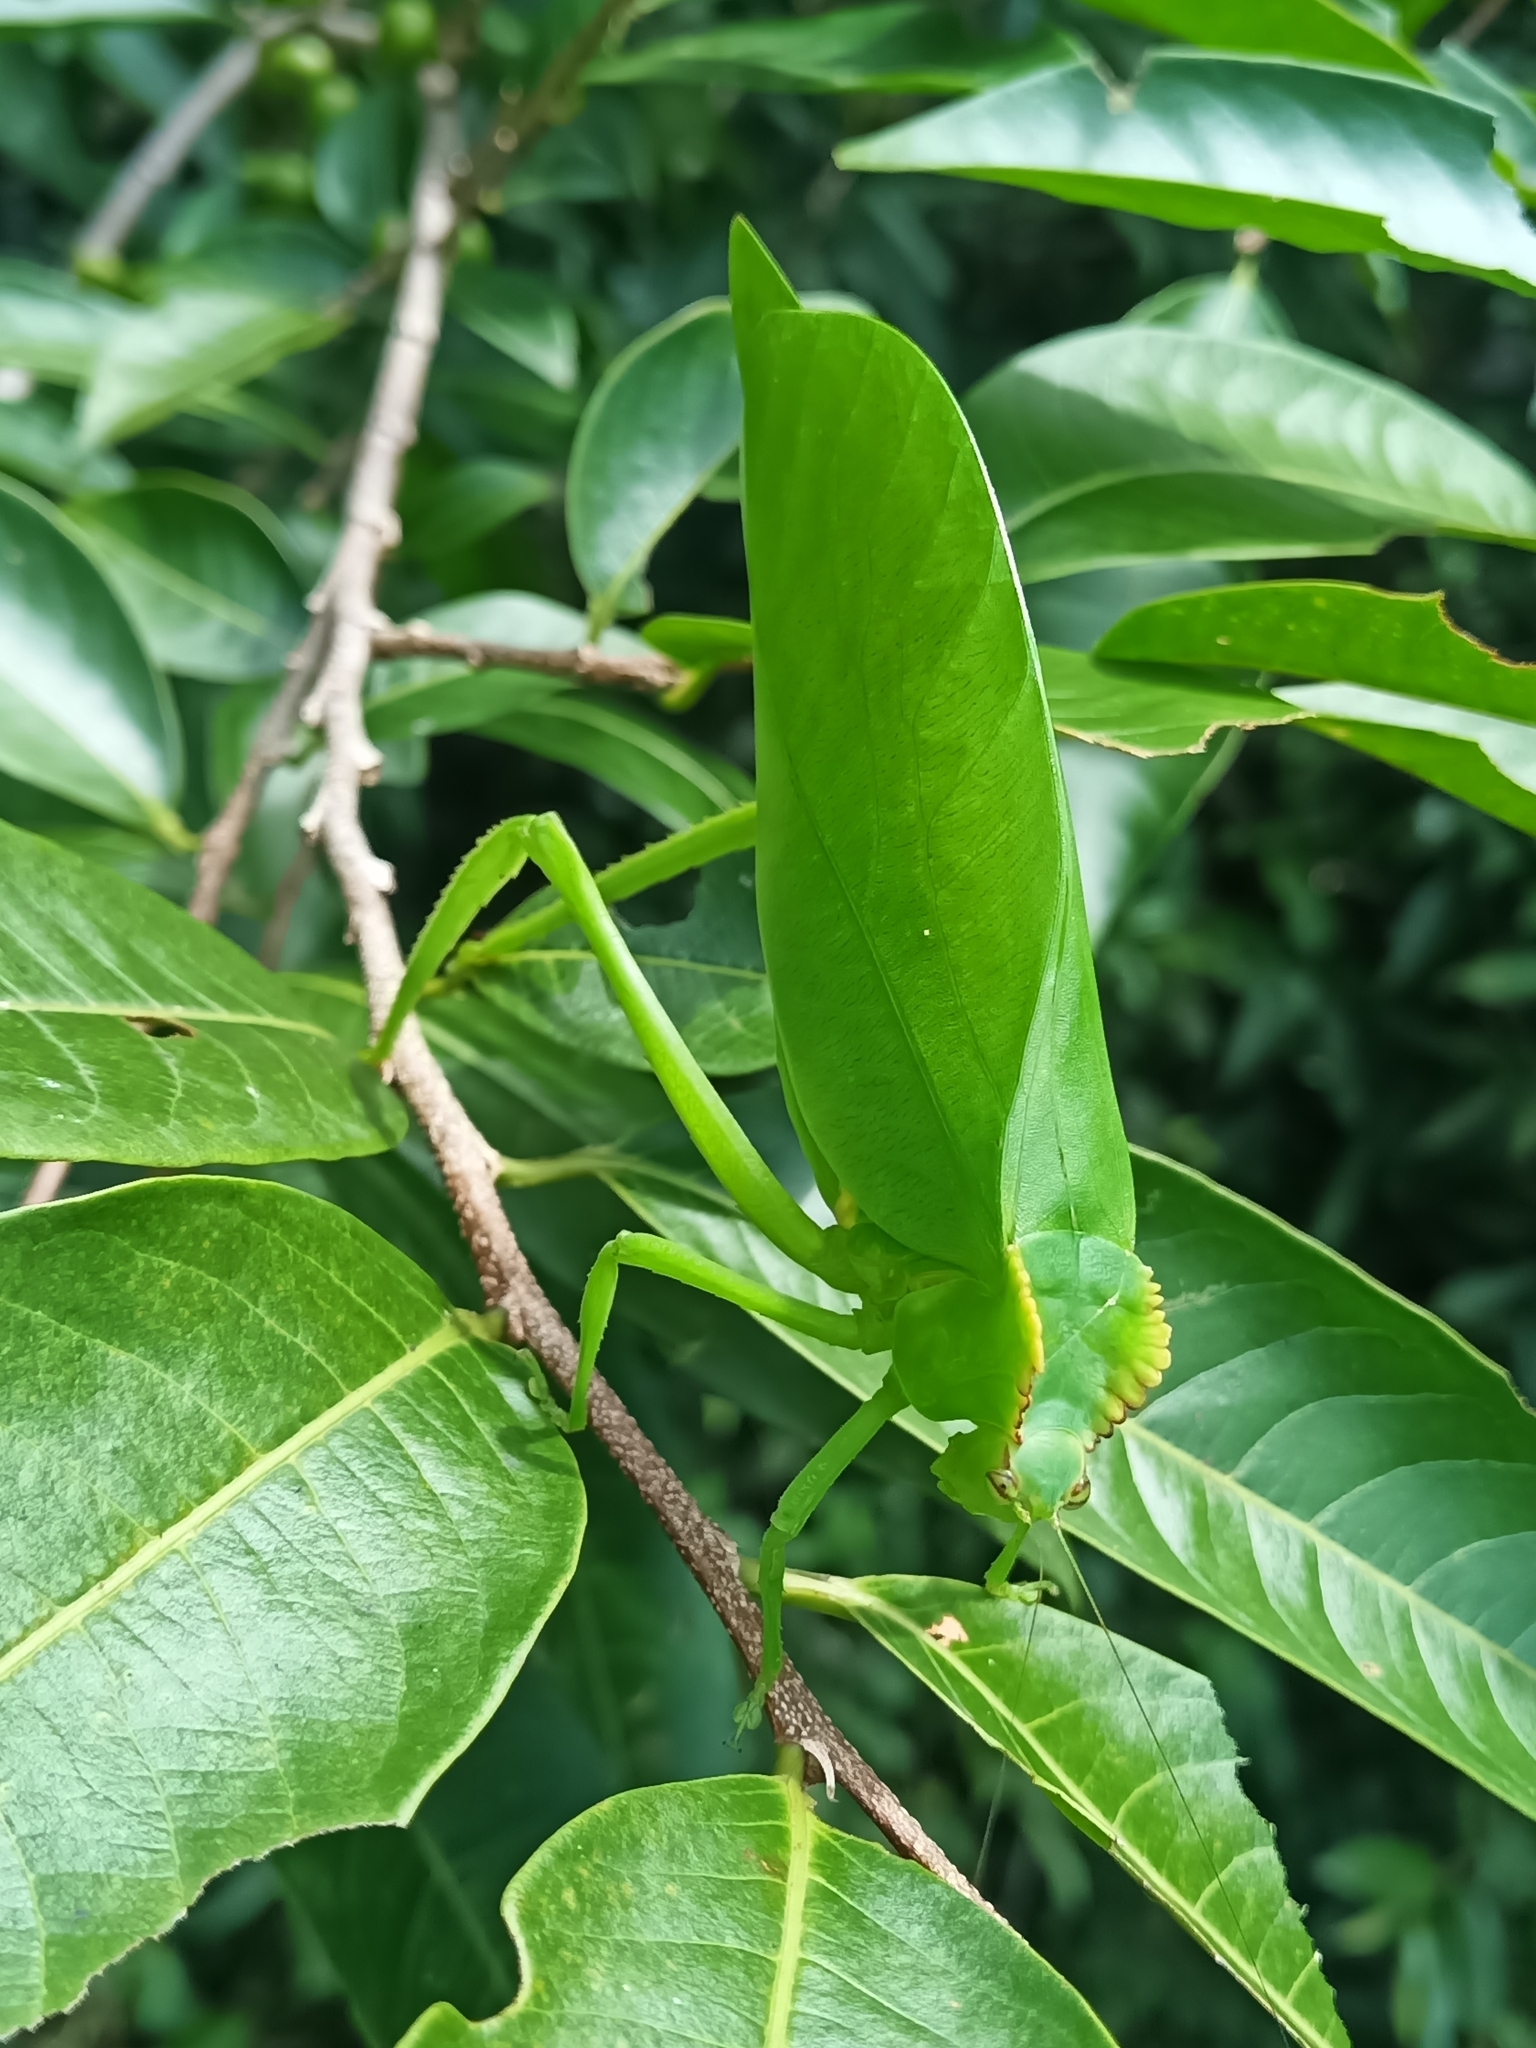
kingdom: Animalia
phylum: Arthropoda
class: Insecta
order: Orthoptera
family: Tettigoniidae
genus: Cnemidophyllum
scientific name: Cnemidophyllum citrifolium
